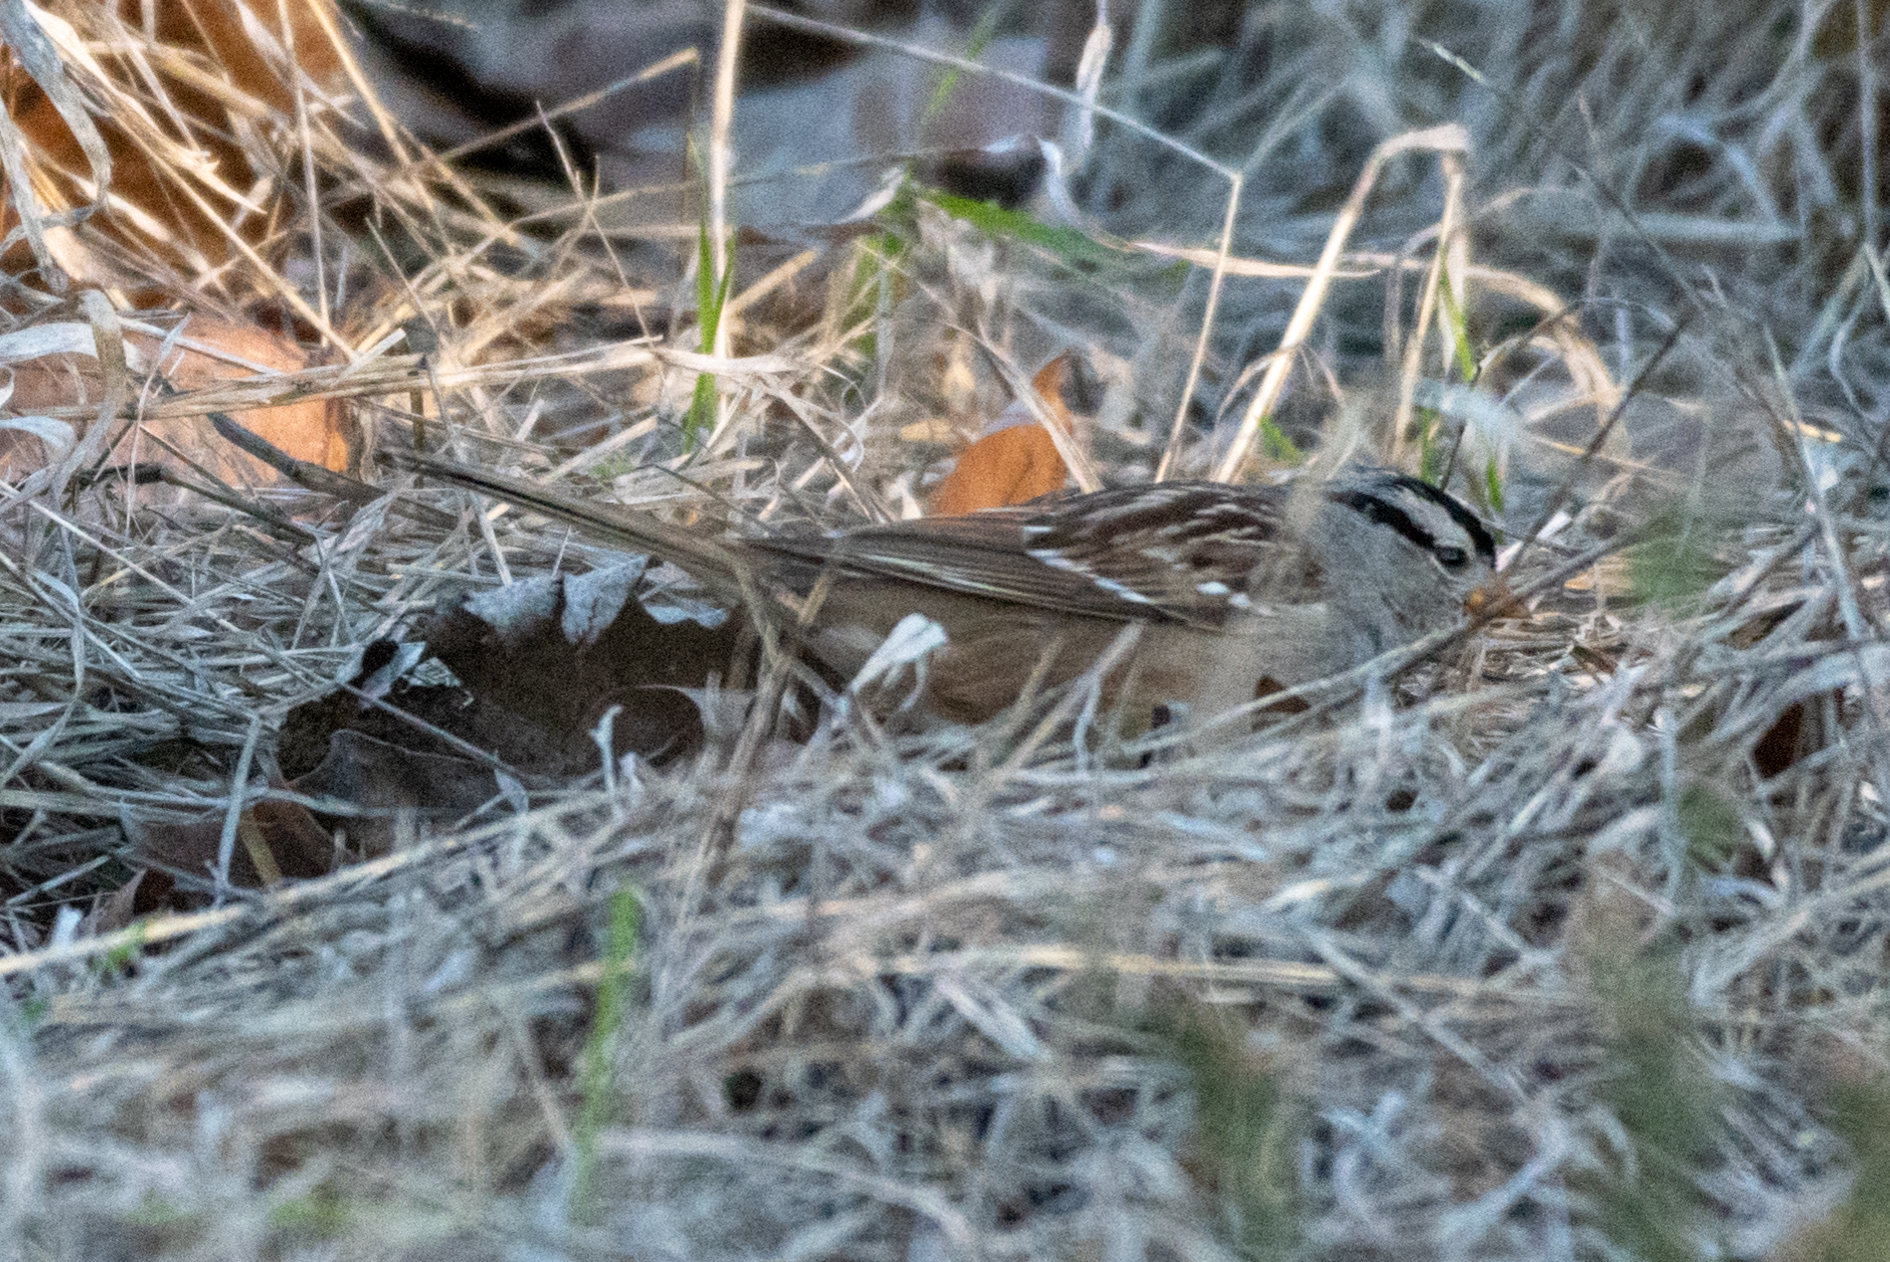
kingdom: Animalia
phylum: Chordata
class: Aves
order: Passeriformes
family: Passerellidae
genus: Zonotrichia
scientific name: Zonotrichia leucophrys
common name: White-crowned sparrow
